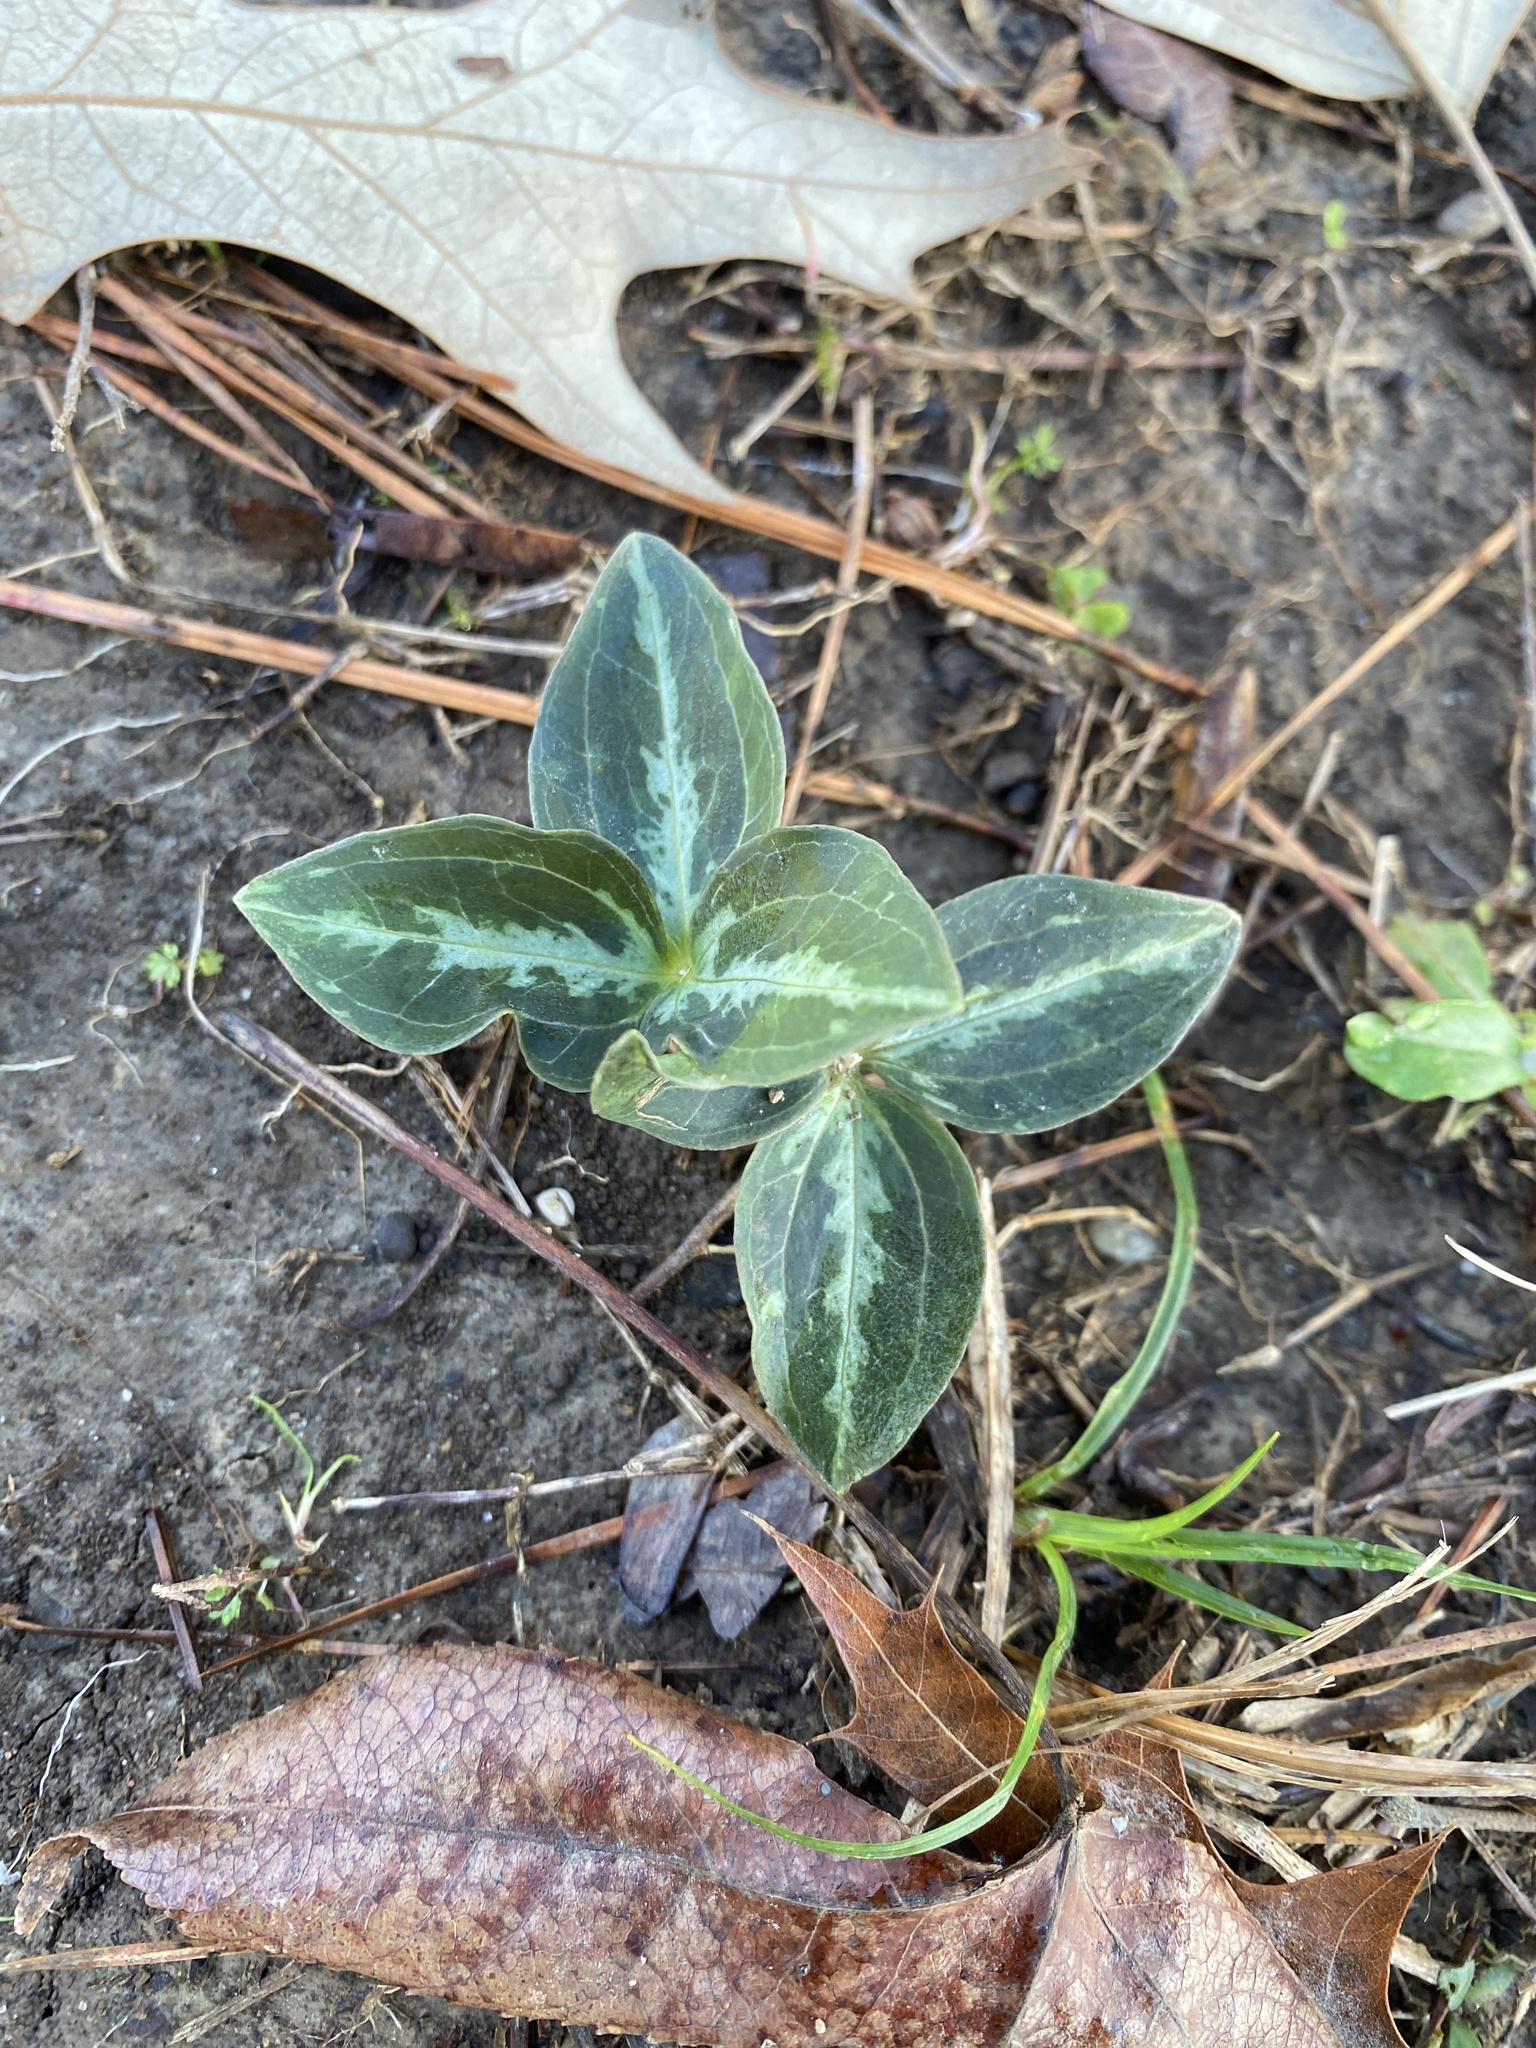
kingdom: Plantae
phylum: Tracheophyta
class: Liliopsida
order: Liliales
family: Melanthiaceae
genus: Trillium
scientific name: Trillium foetidissimum
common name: Mississippi river trillium
